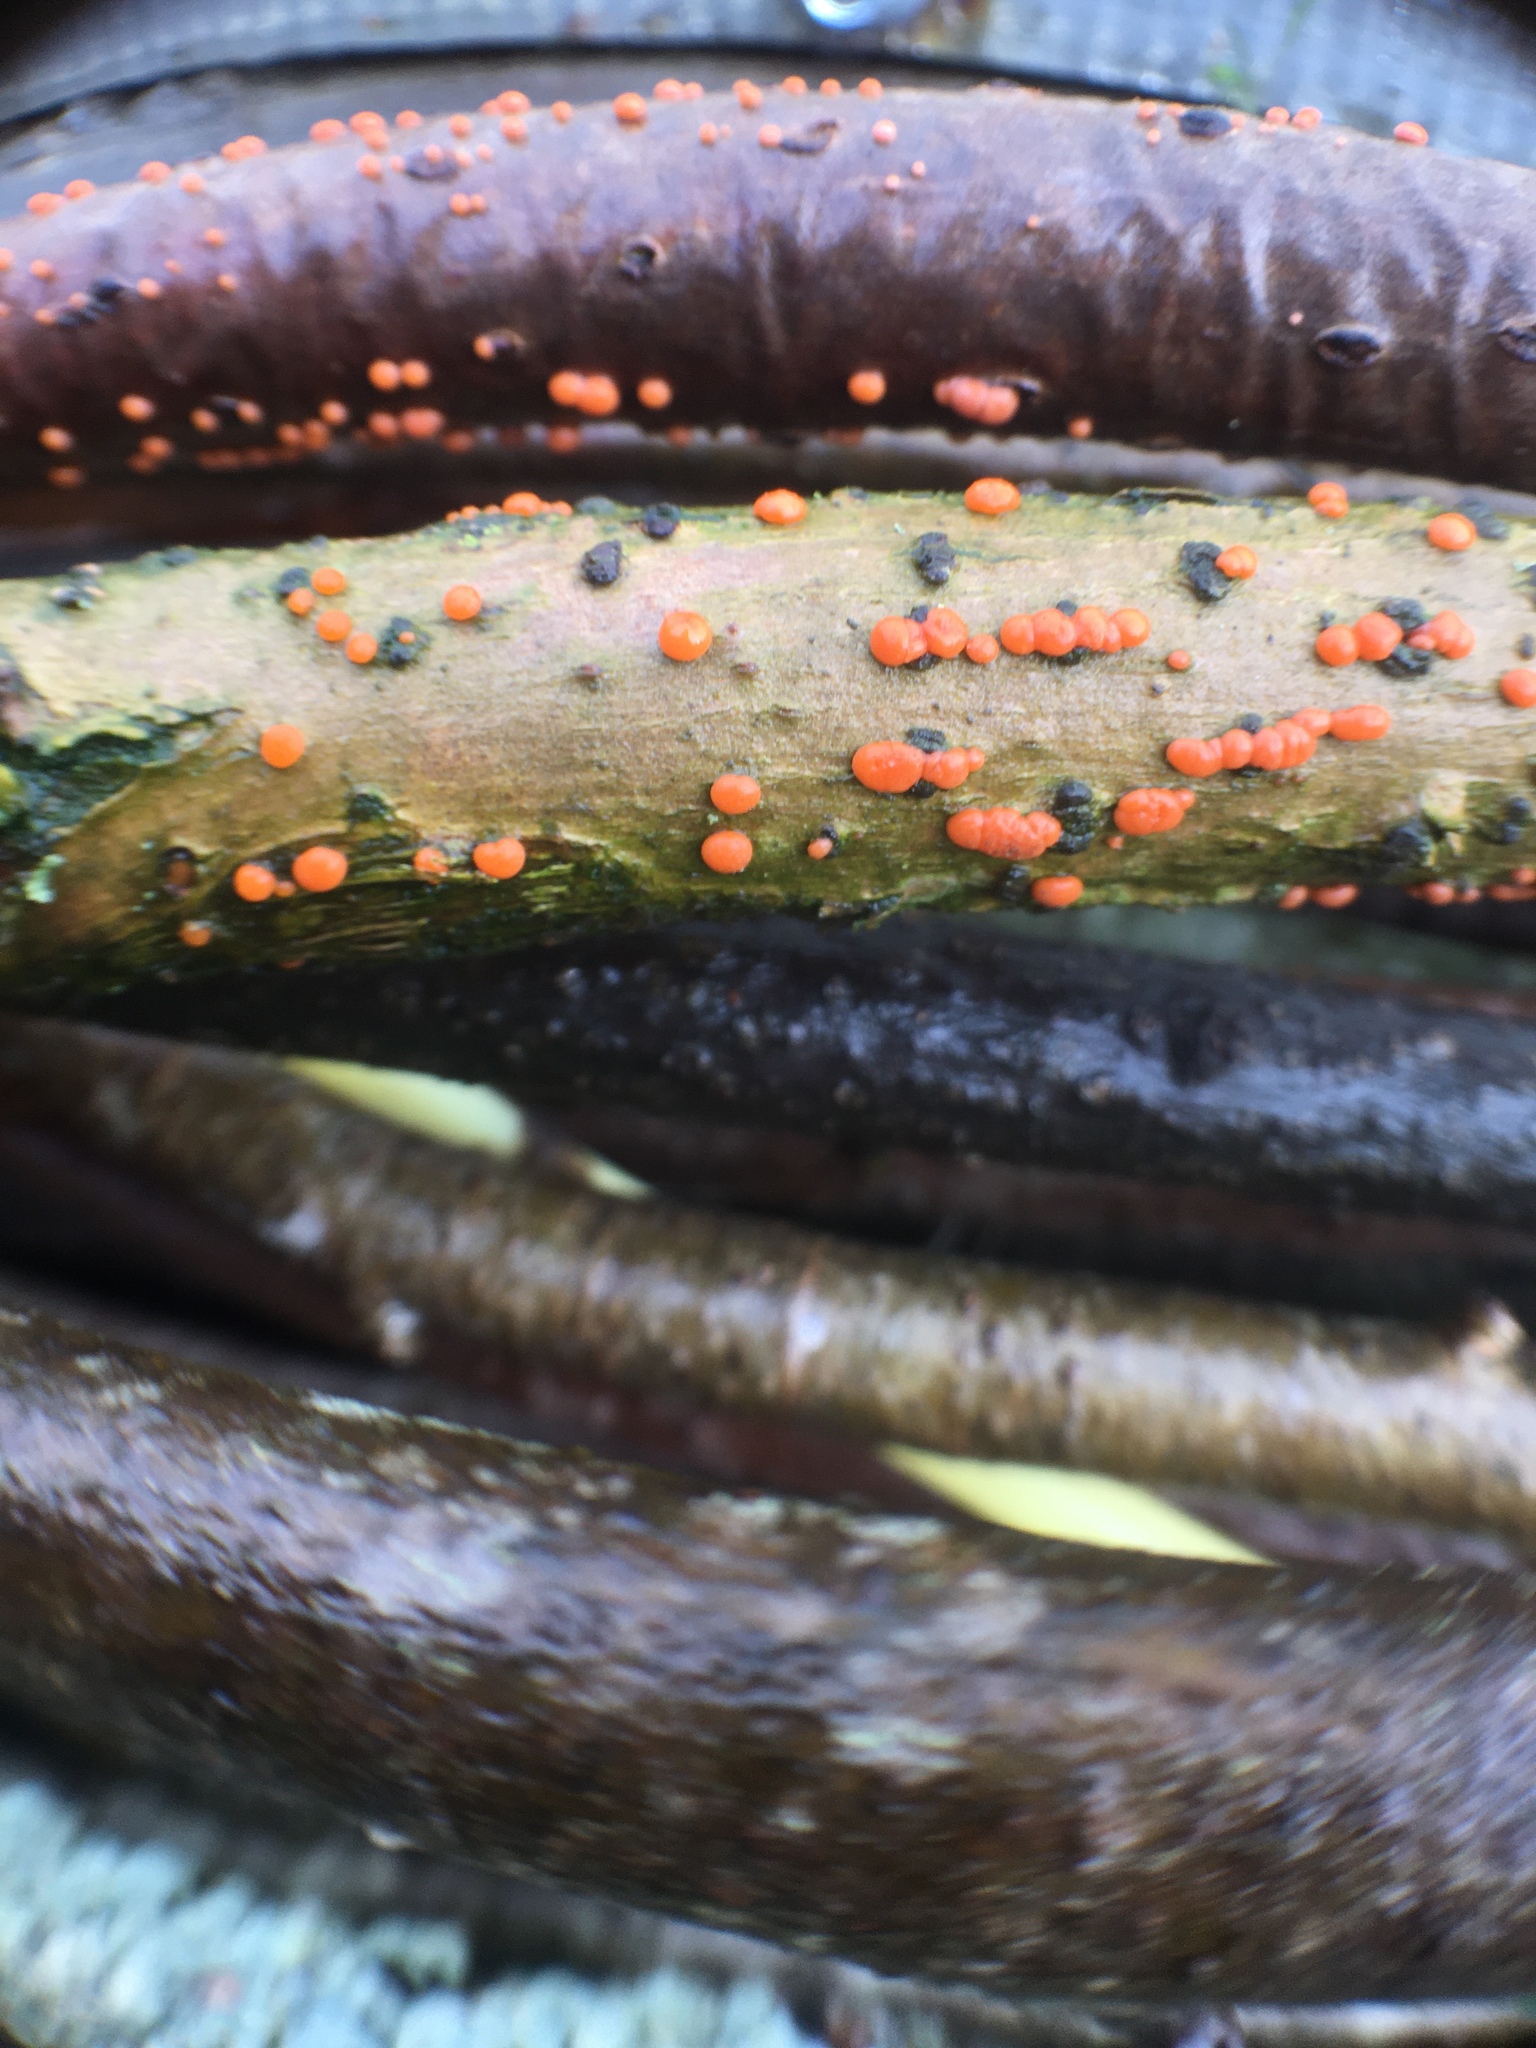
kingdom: Fungi
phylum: Ascomycota
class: Sordariomycetes
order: Hypocreales
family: Nectriaceae
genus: Nectria
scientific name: Nectria cinnabarina
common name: Coral spot
